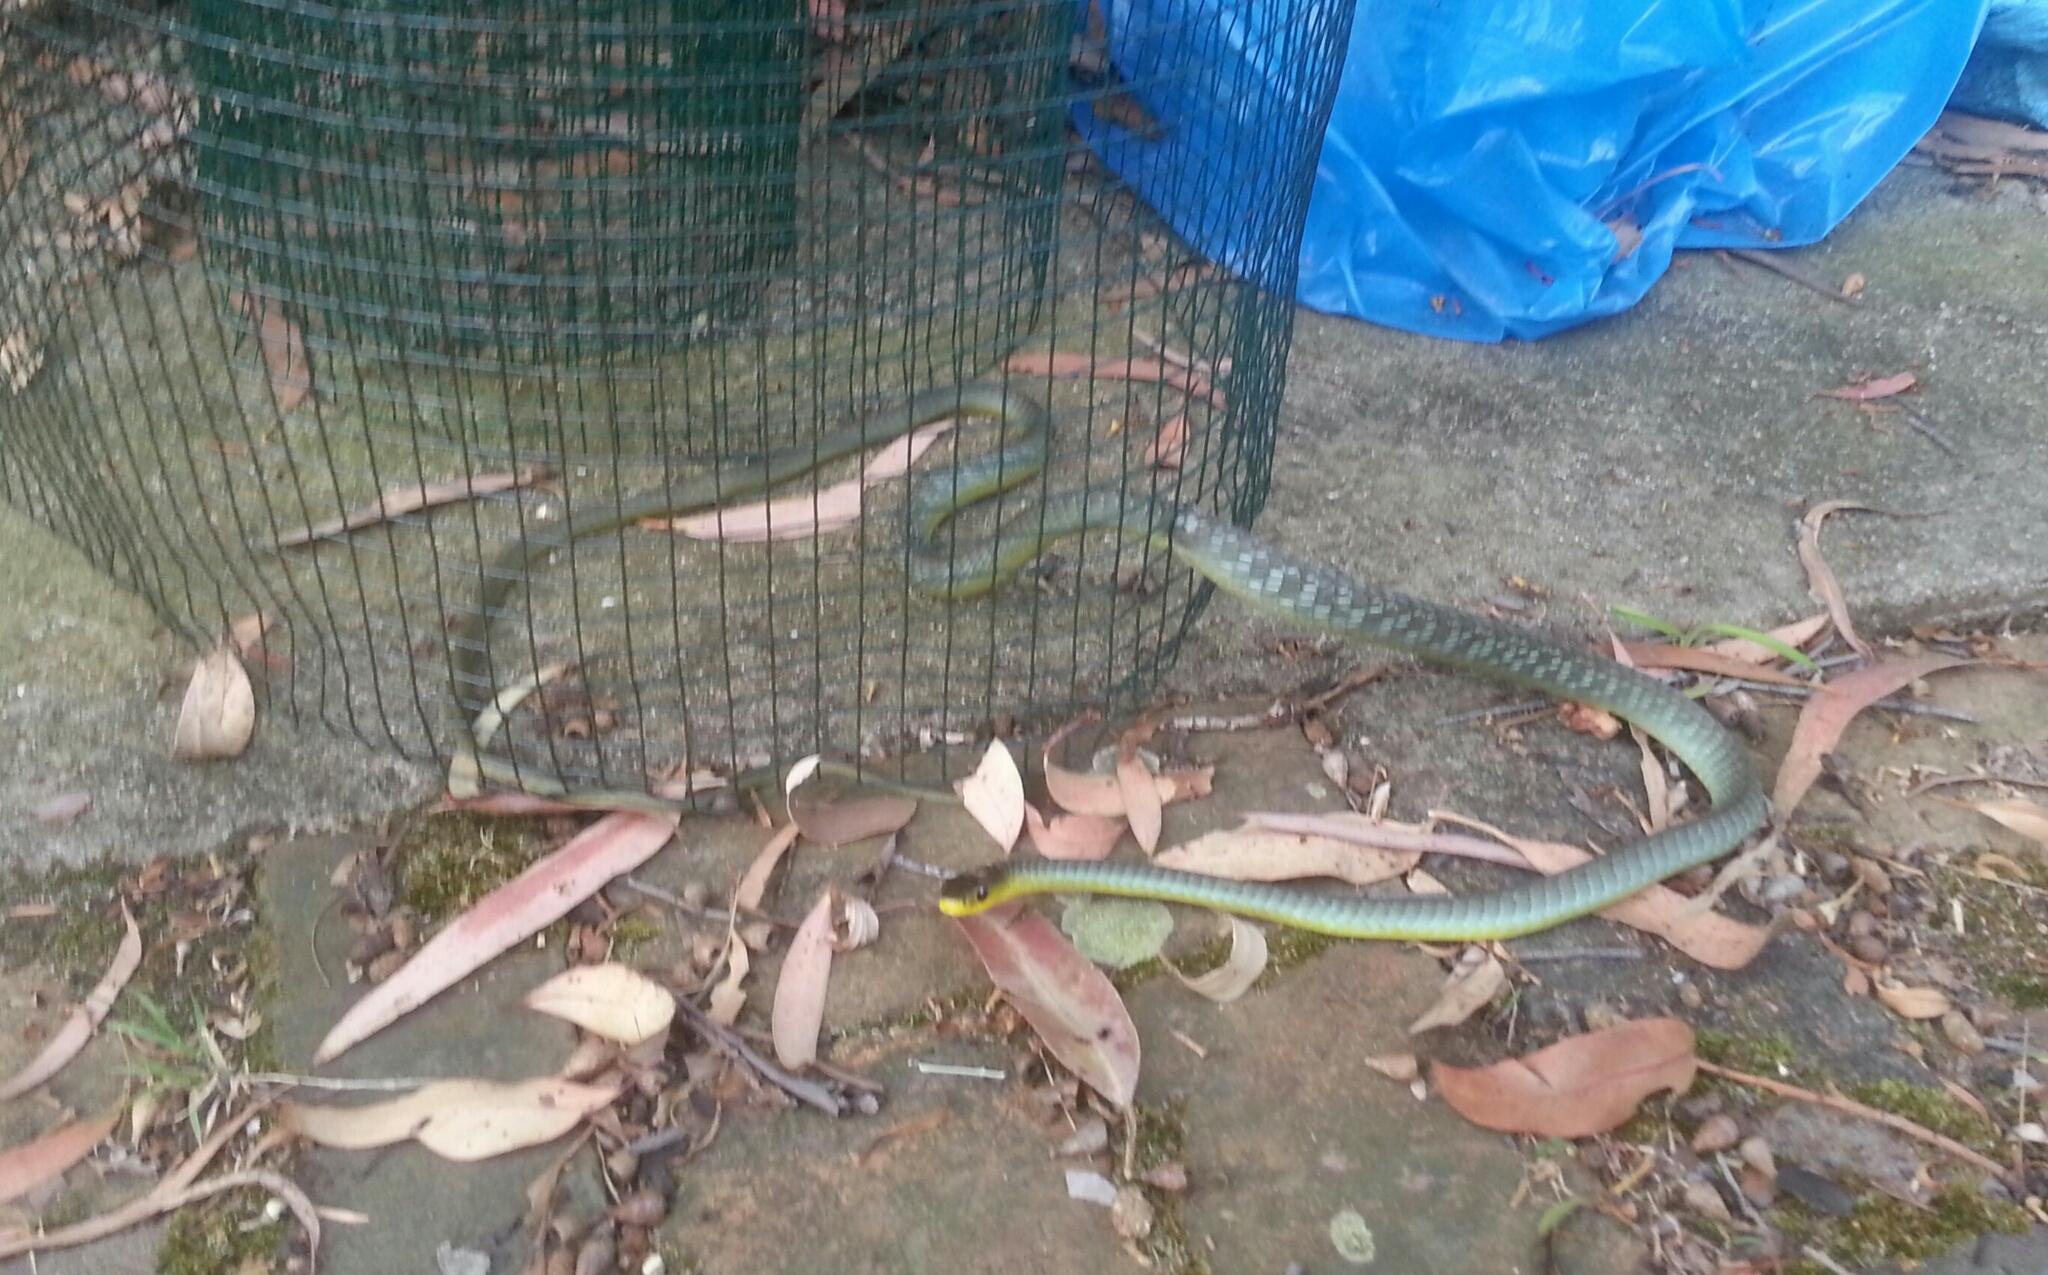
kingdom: Animalia
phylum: Chordata
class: Squamata
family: Colubridae
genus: Dendrelaphis
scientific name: Dendrelaphis punctulatus
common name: Common tree snake
